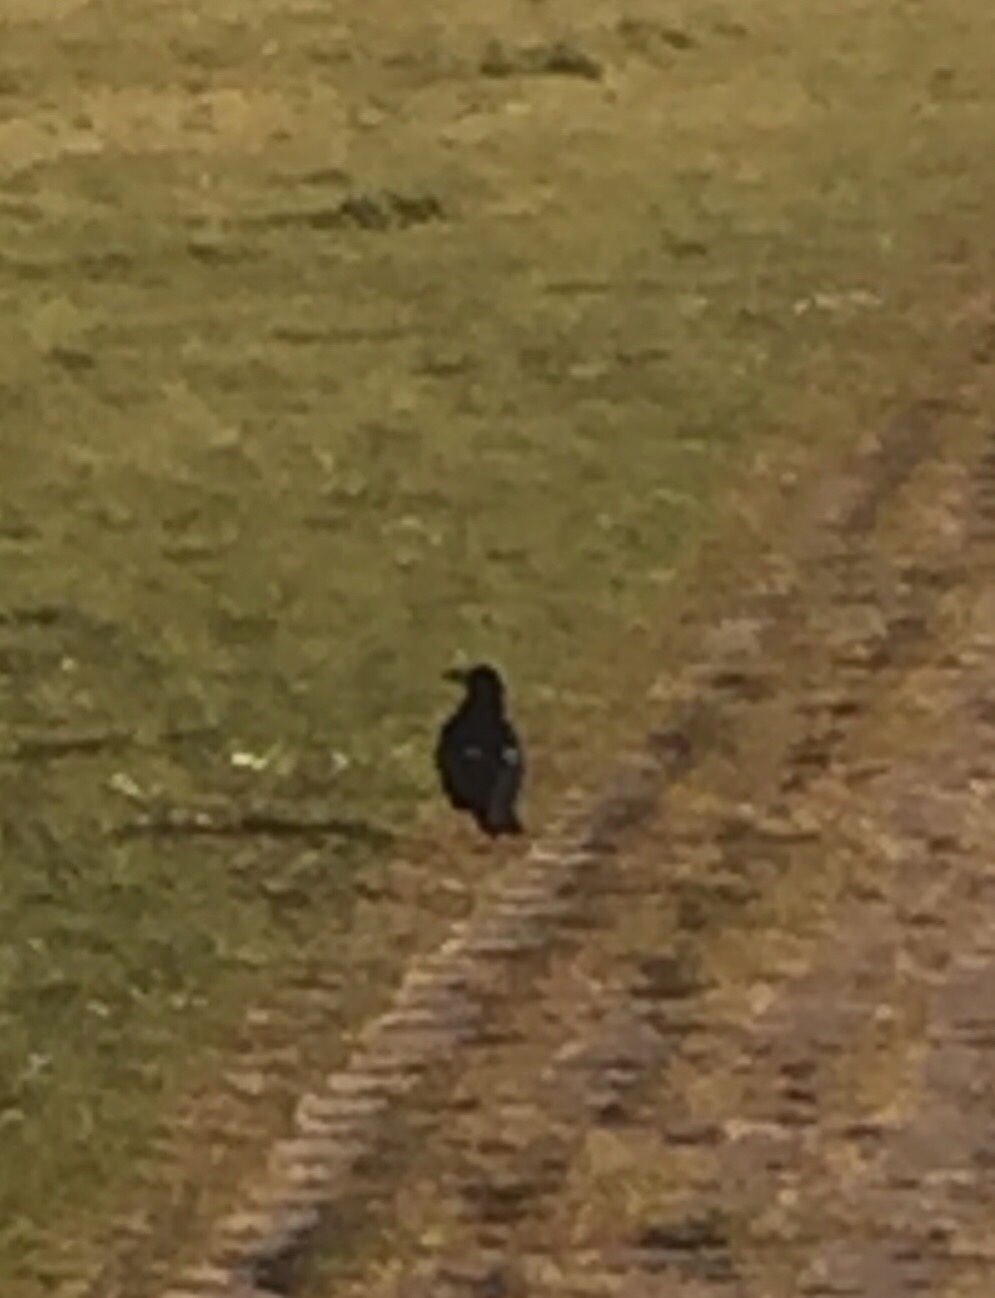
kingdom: Animalia
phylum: Chordata
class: Aves
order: Passeriformes
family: Corvidae
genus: Corvus
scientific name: Corvus frugilegus
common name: Rook
